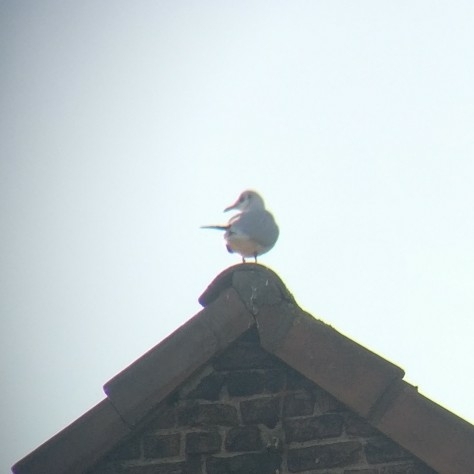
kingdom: Animalia
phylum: Chordata
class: Aves
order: Charadriiformes
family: Laridae
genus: Chroicocephalus
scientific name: Chroicocephalus ridibundus
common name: Black-headed gull
